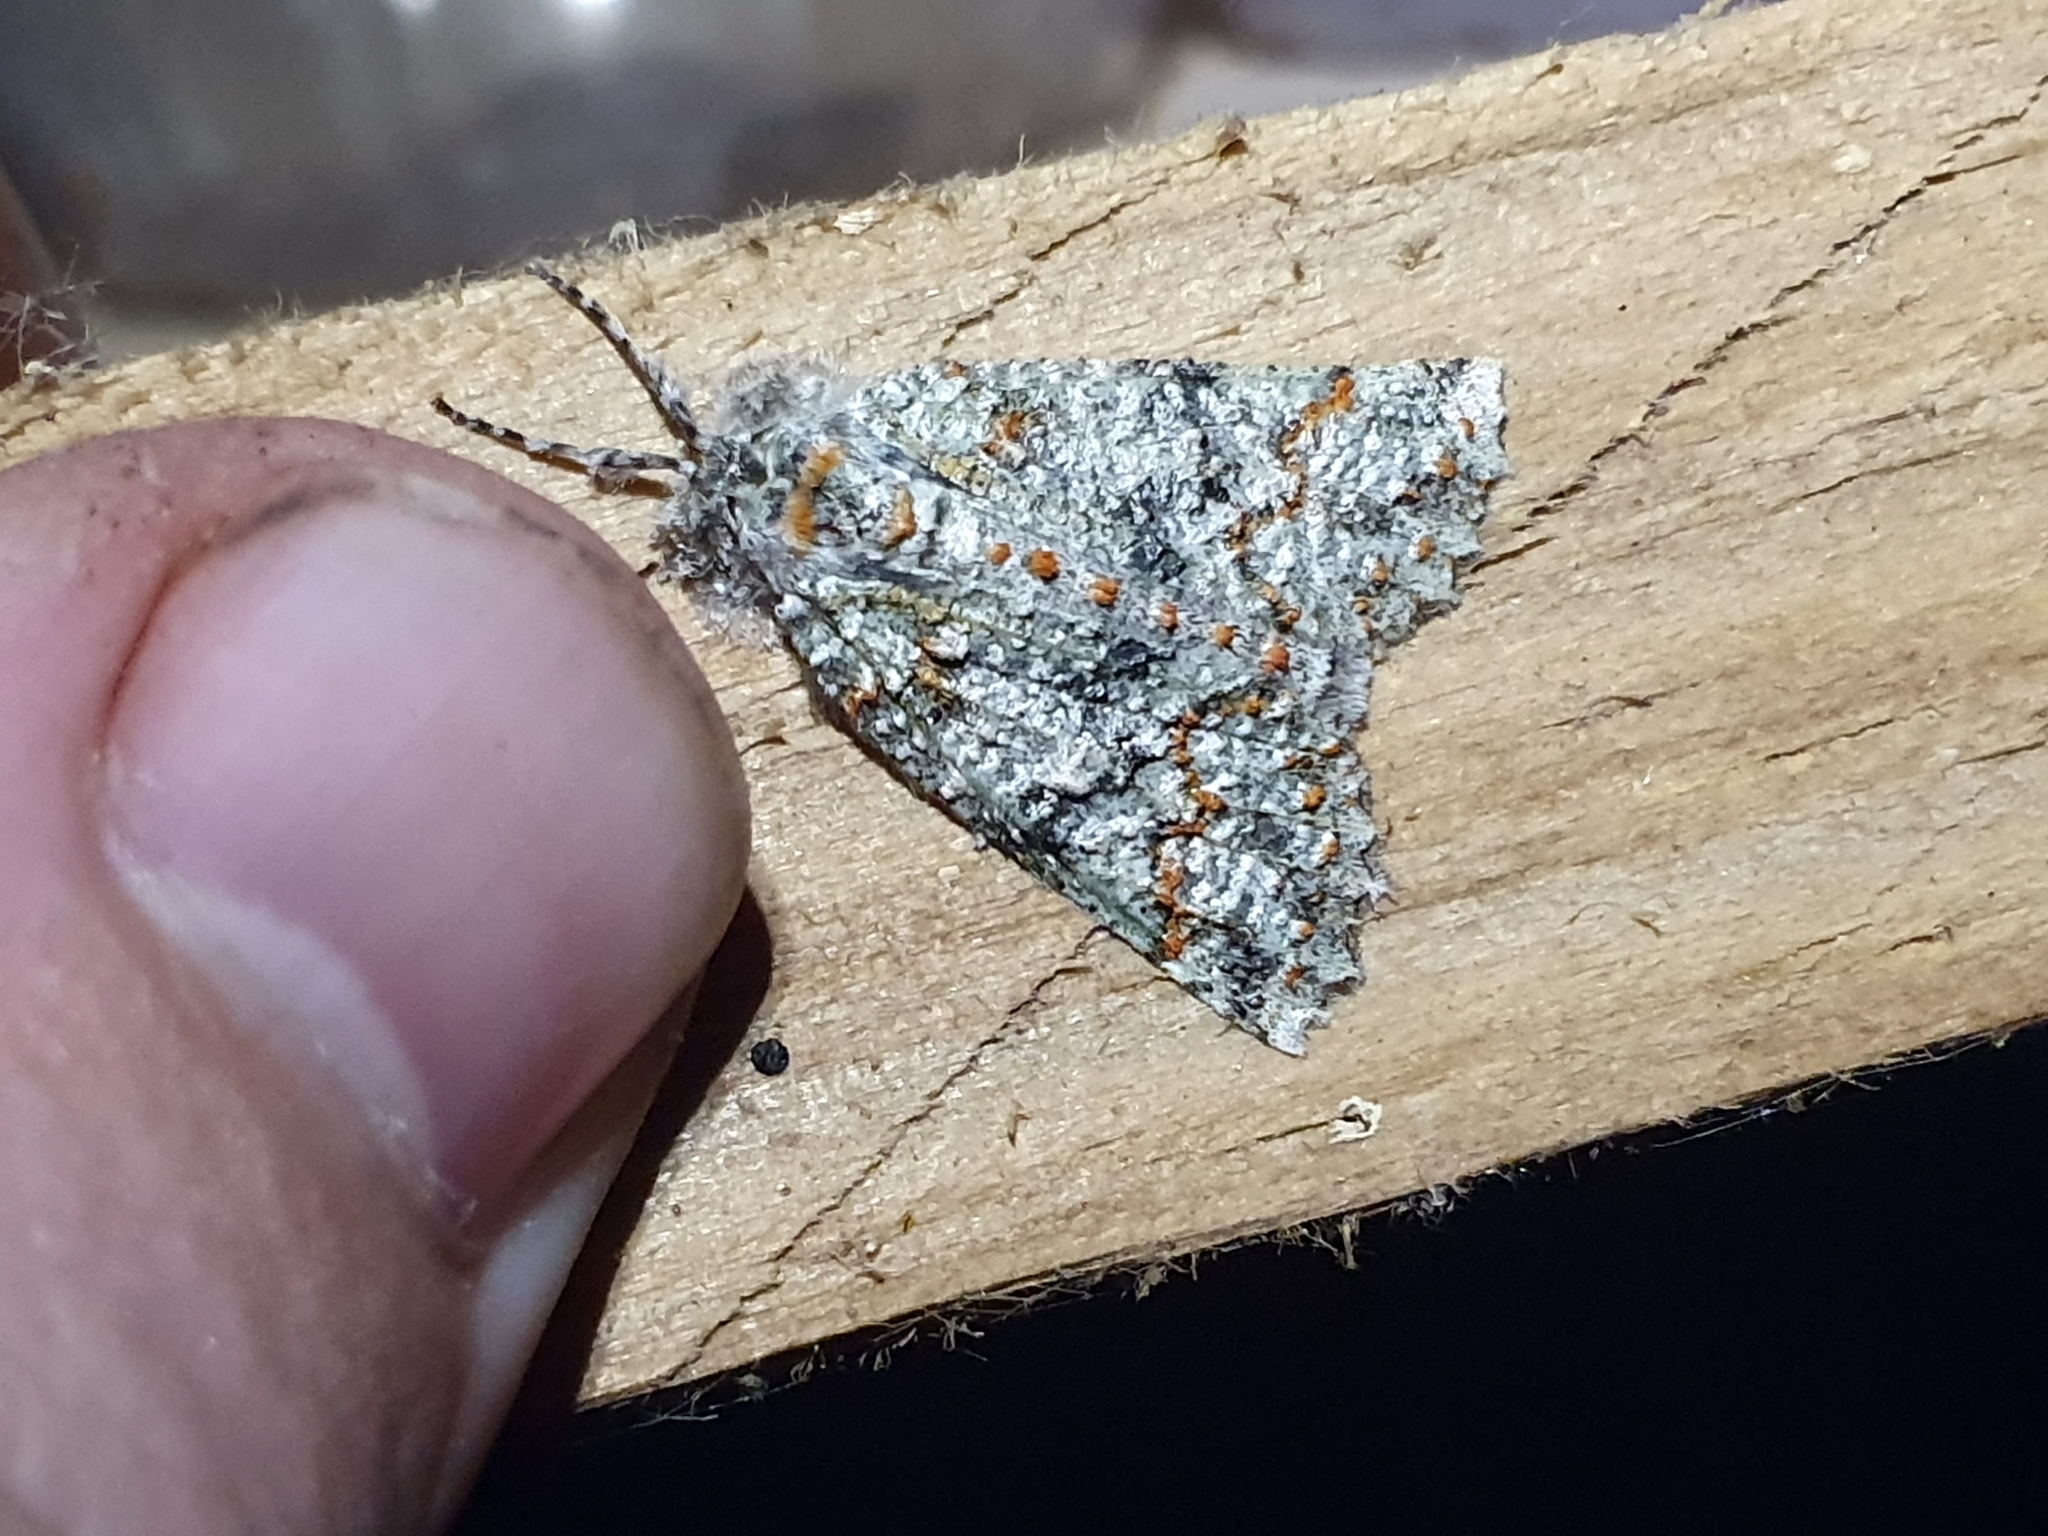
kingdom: Animalia
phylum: Arthropoda
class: Insecta
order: Lepidoptera
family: Geometridae
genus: Declana
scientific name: Declana floccosa
